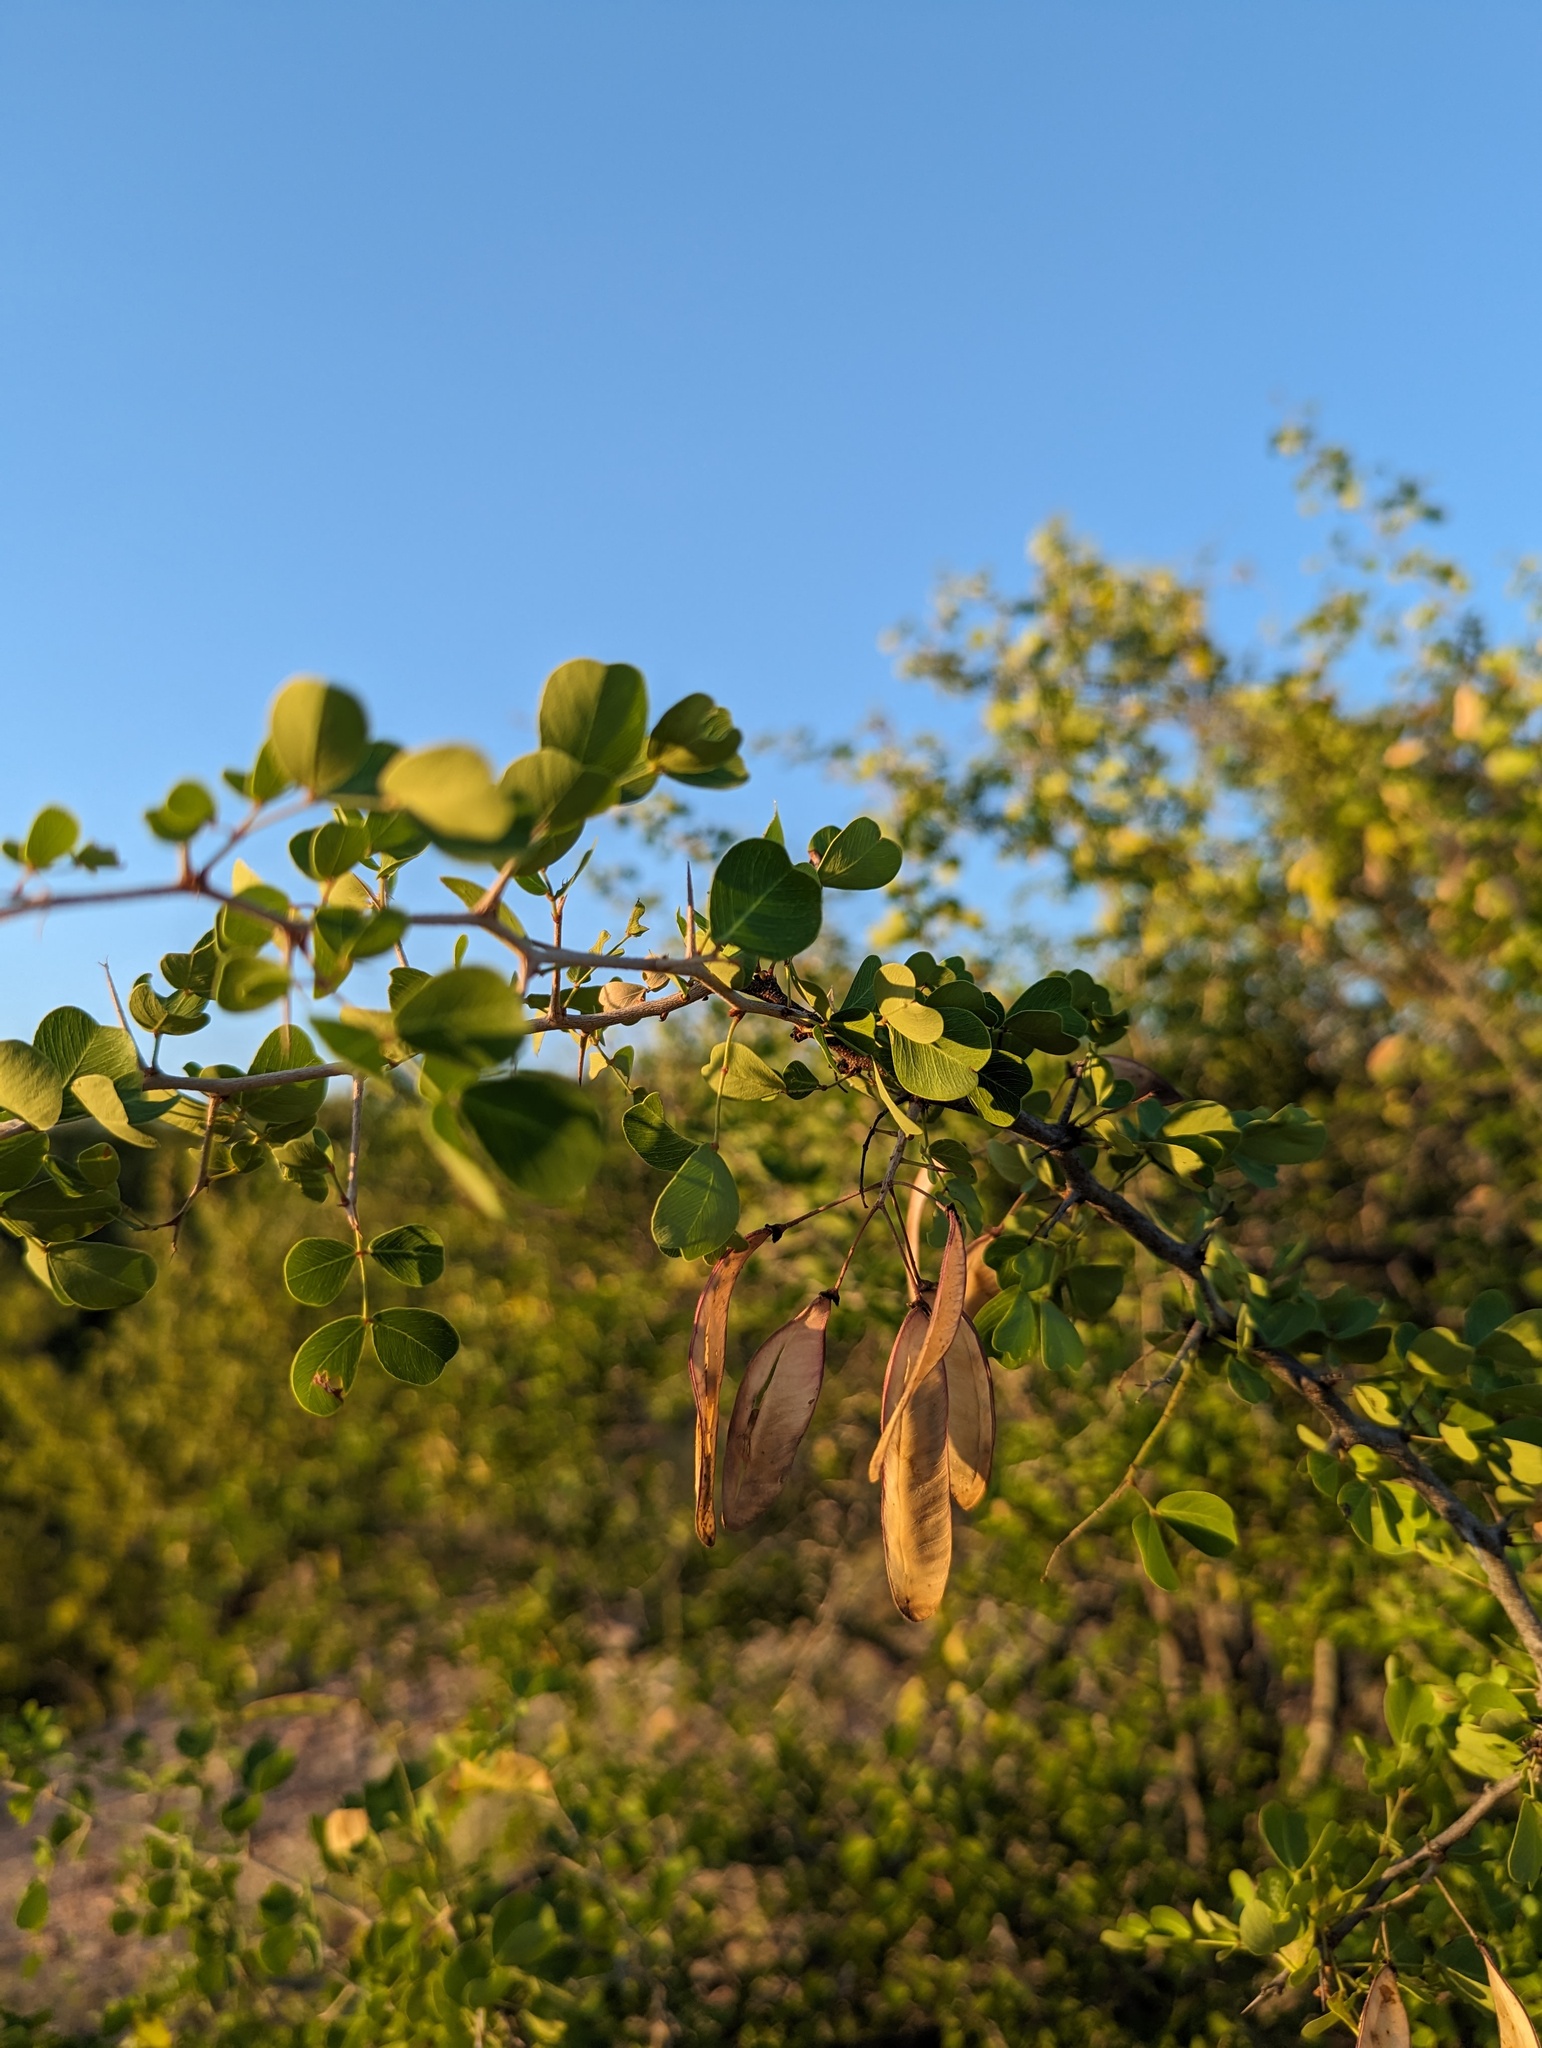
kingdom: Plantae
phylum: Tracheophyta
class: Magnoliopsida
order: Fabales
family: Fabaceae
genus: Haematoxylum
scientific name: Haematoxylum brasiletto
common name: Peachwood
